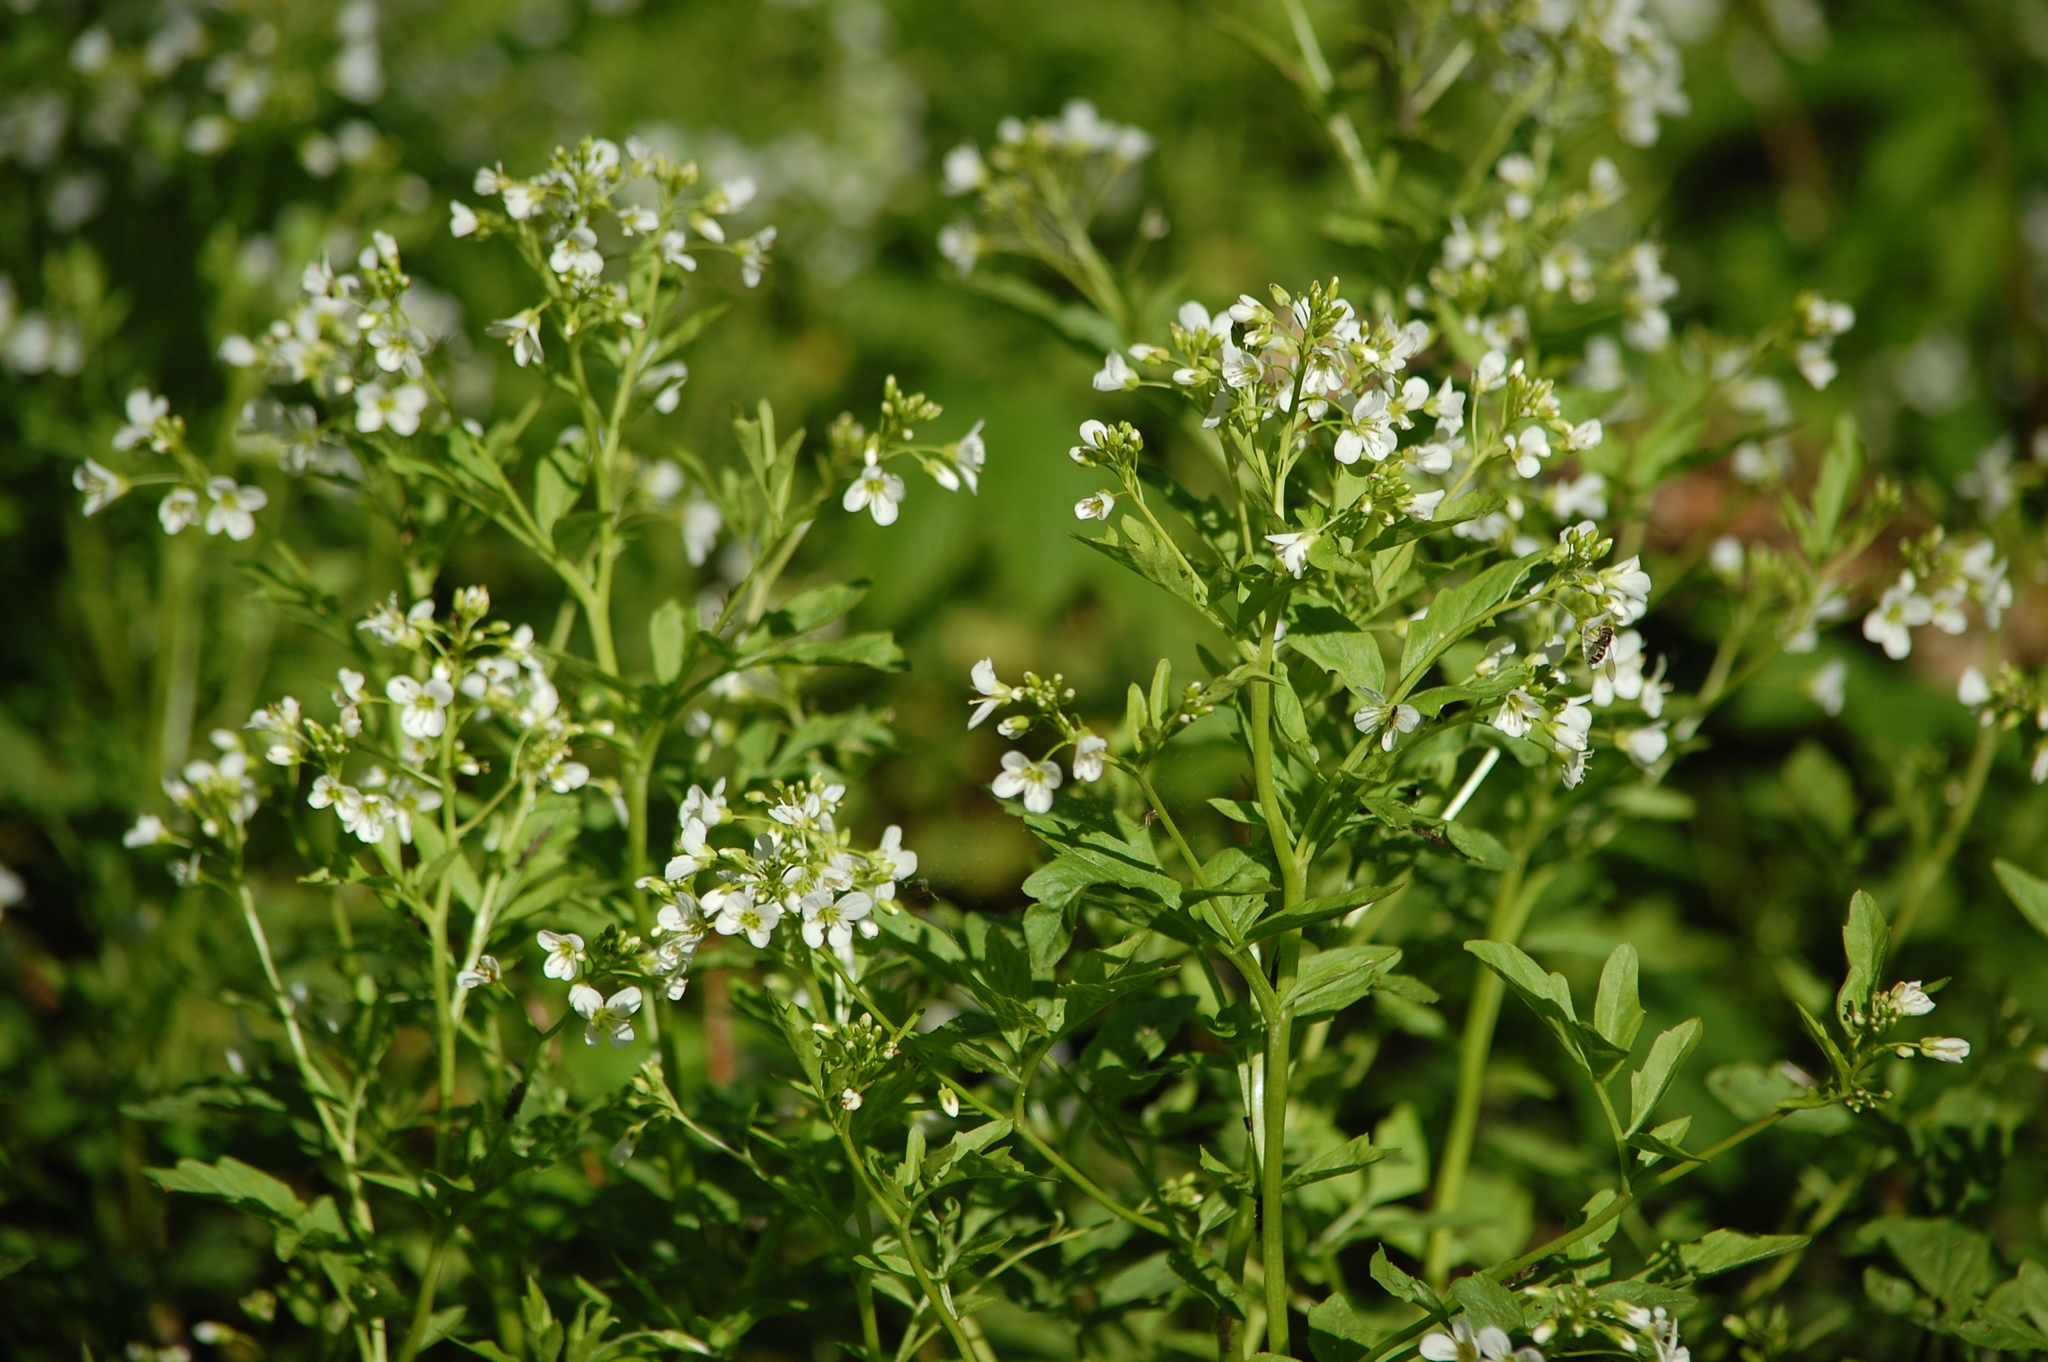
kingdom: Plantae
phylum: Tracheophyta
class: Magnoliopsida
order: Brassicales
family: Brassicaceae
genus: Cardamine
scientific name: Cardamine amara
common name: Large bitter-cress
